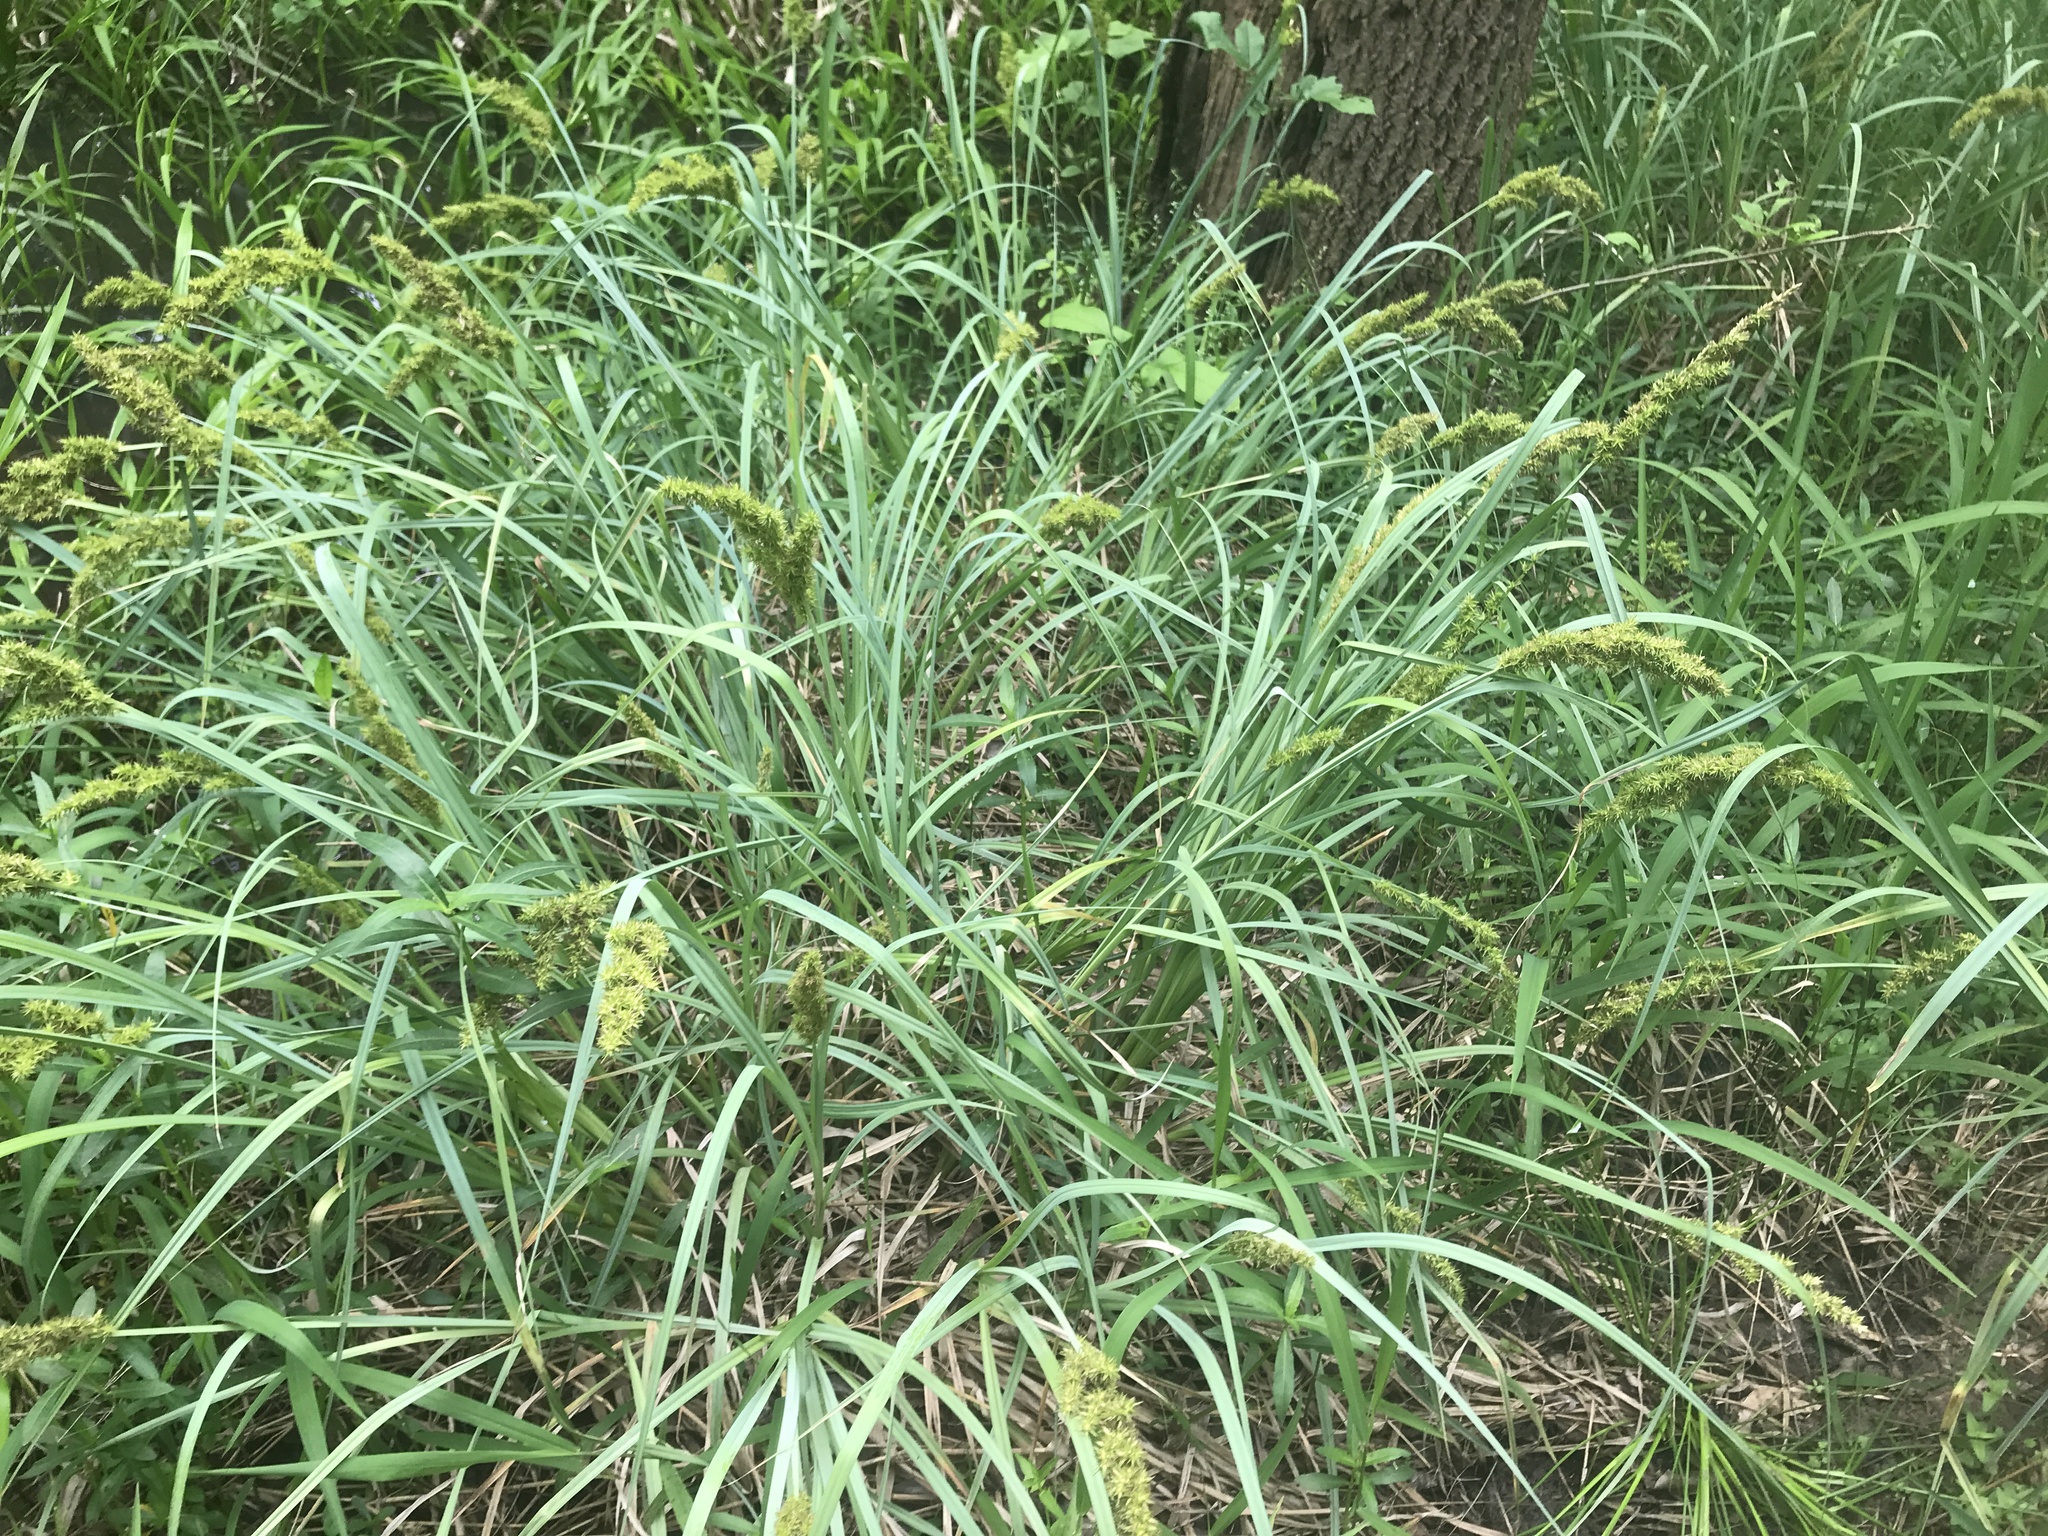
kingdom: Plantae
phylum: Tracheophyta
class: Liliopsida
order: Poales
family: Cyperaceae
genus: Carex
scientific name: Carex crus-corvi
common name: Crow-spur sedge
